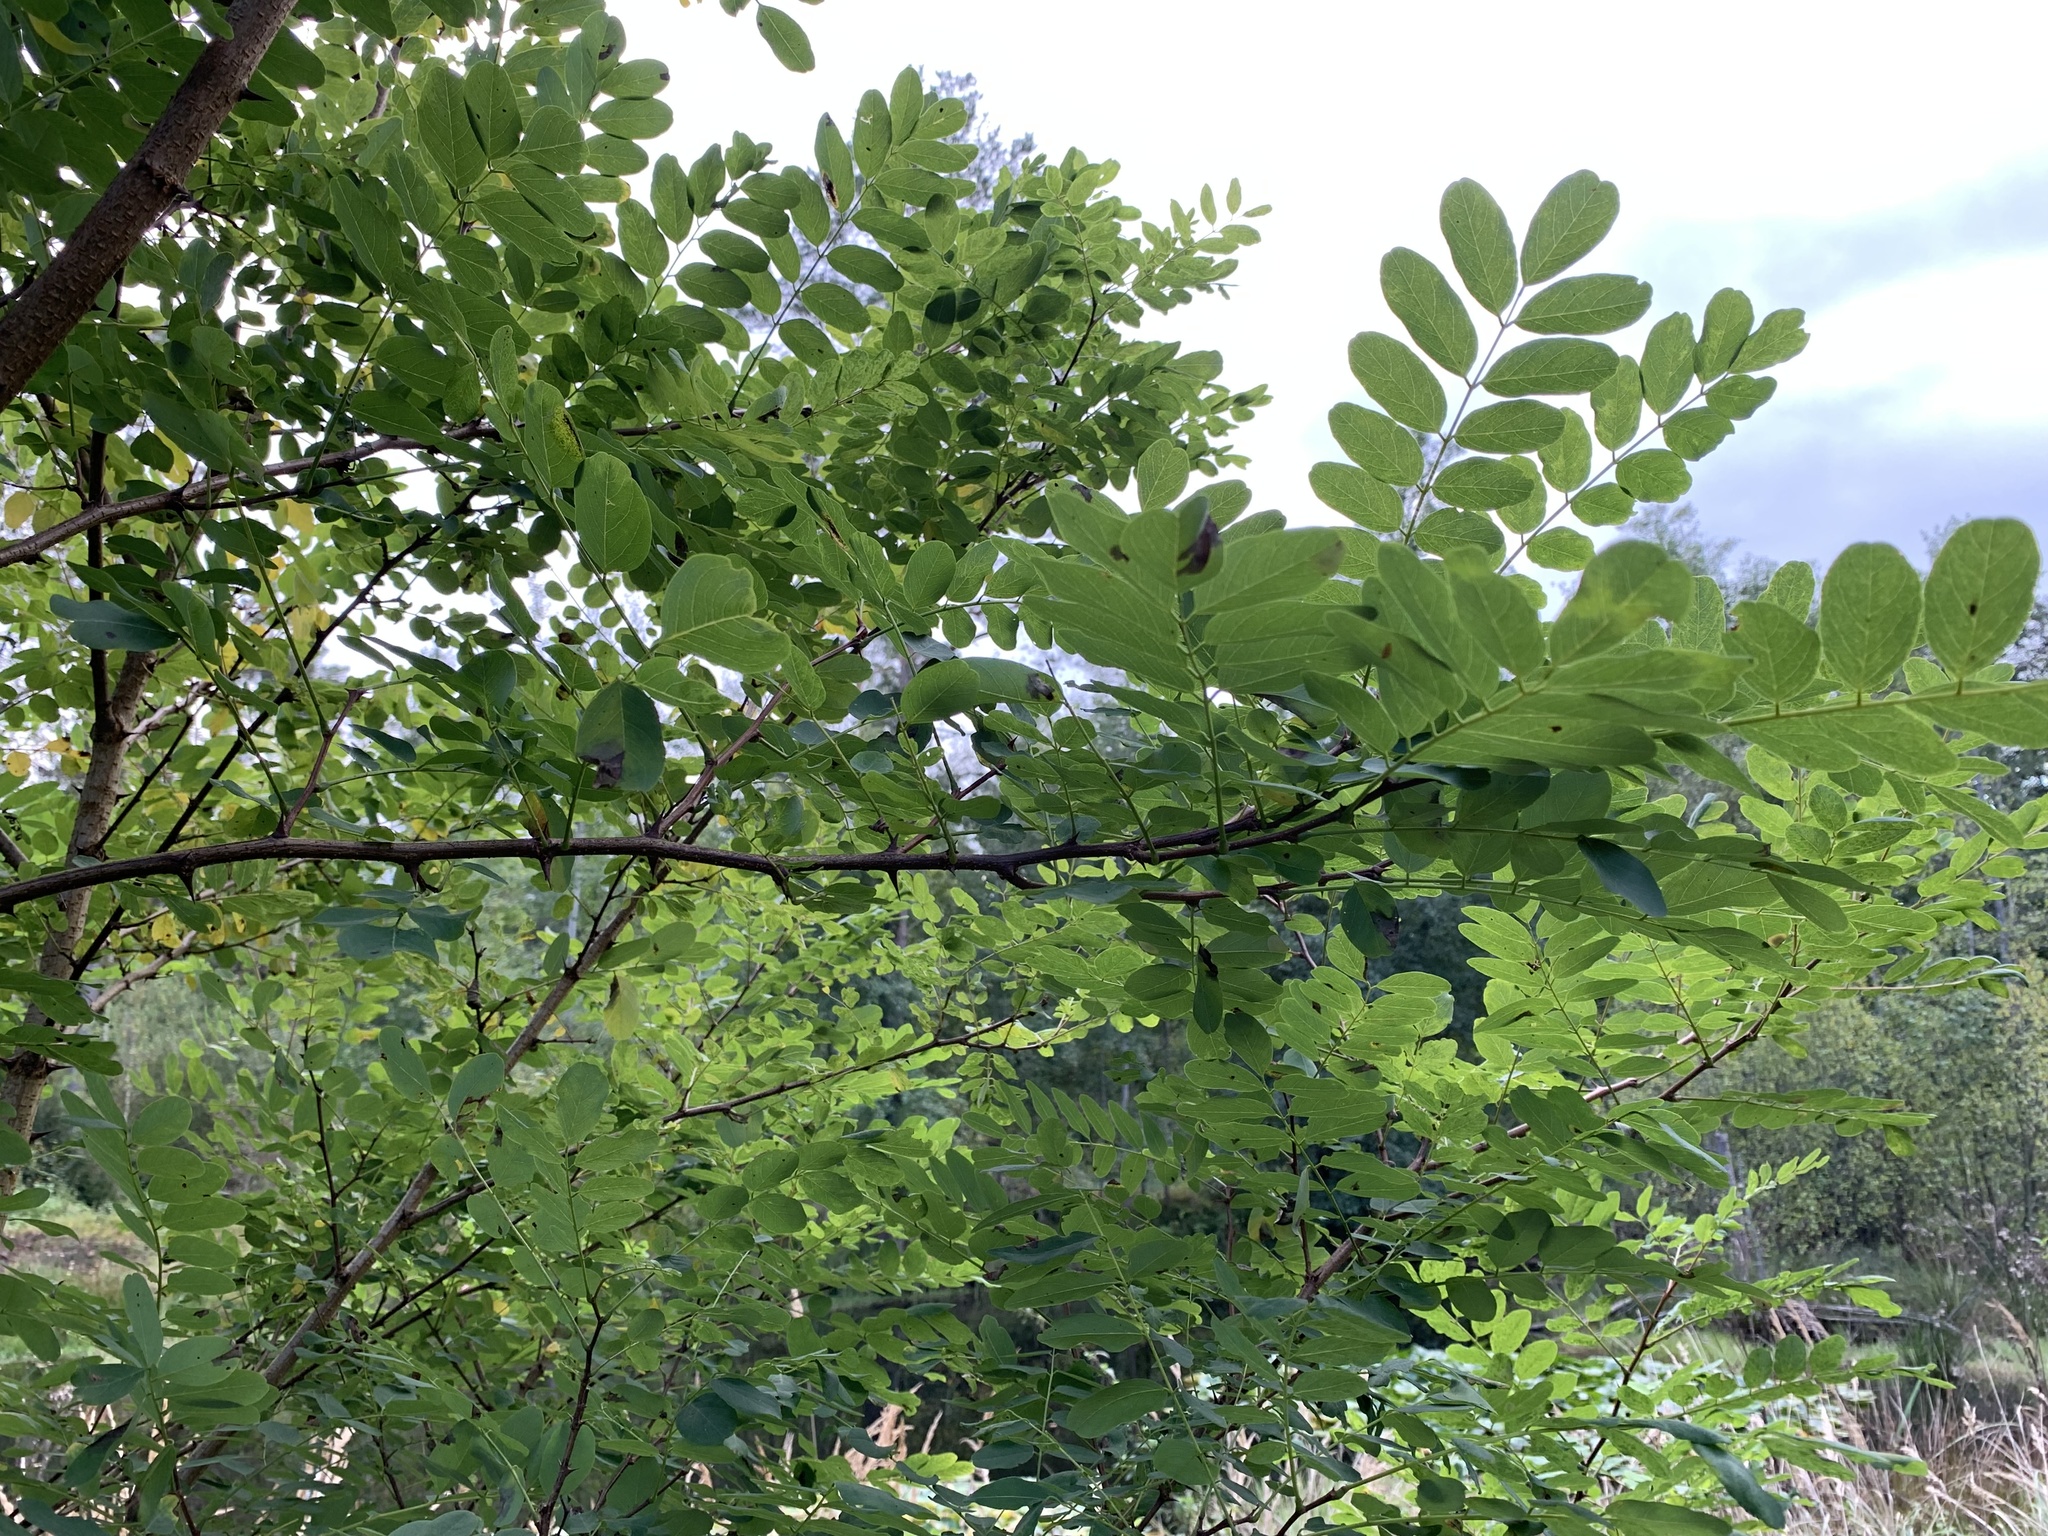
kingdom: Plantae
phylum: Tracheophyta
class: Magnoliopsida
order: Fabales
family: Fabaceae
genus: Robinia
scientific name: Robinia pseudoacacia
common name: Black locust
